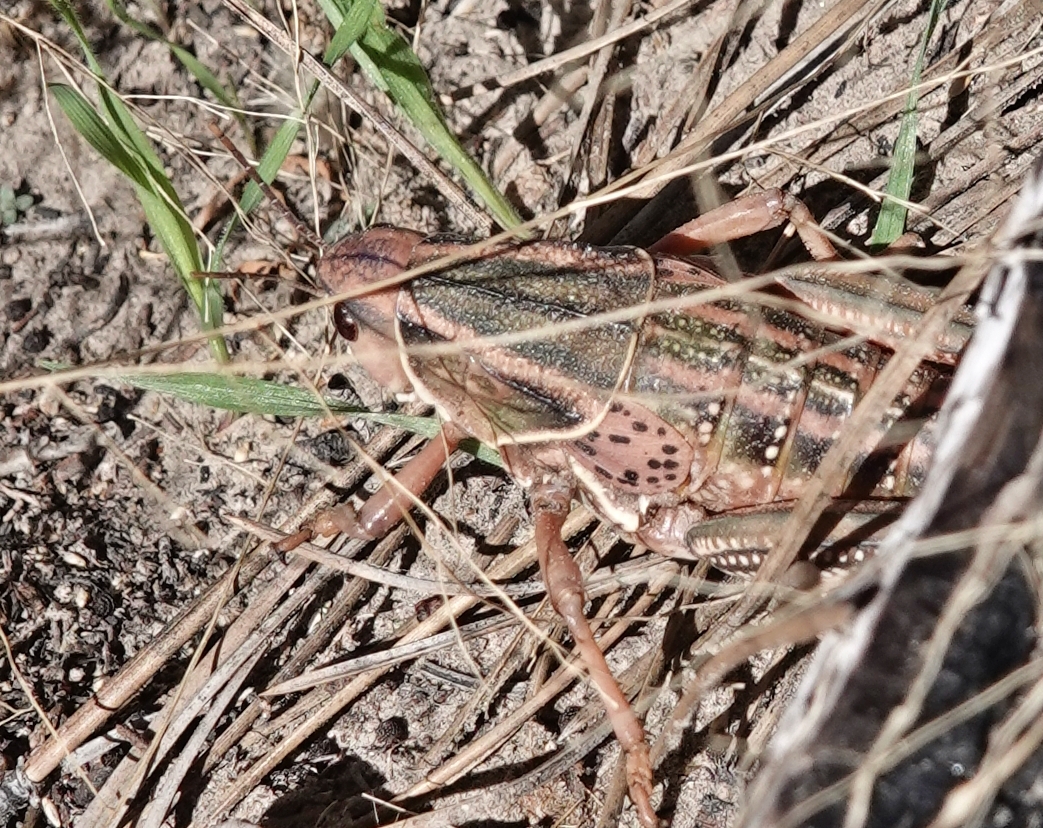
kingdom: Animalia
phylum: Arthropoda
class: Insecta
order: Orthoptera
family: Romaleidae
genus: Brachystola
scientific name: Brachystola magna
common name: Plains lubber grasshopper
